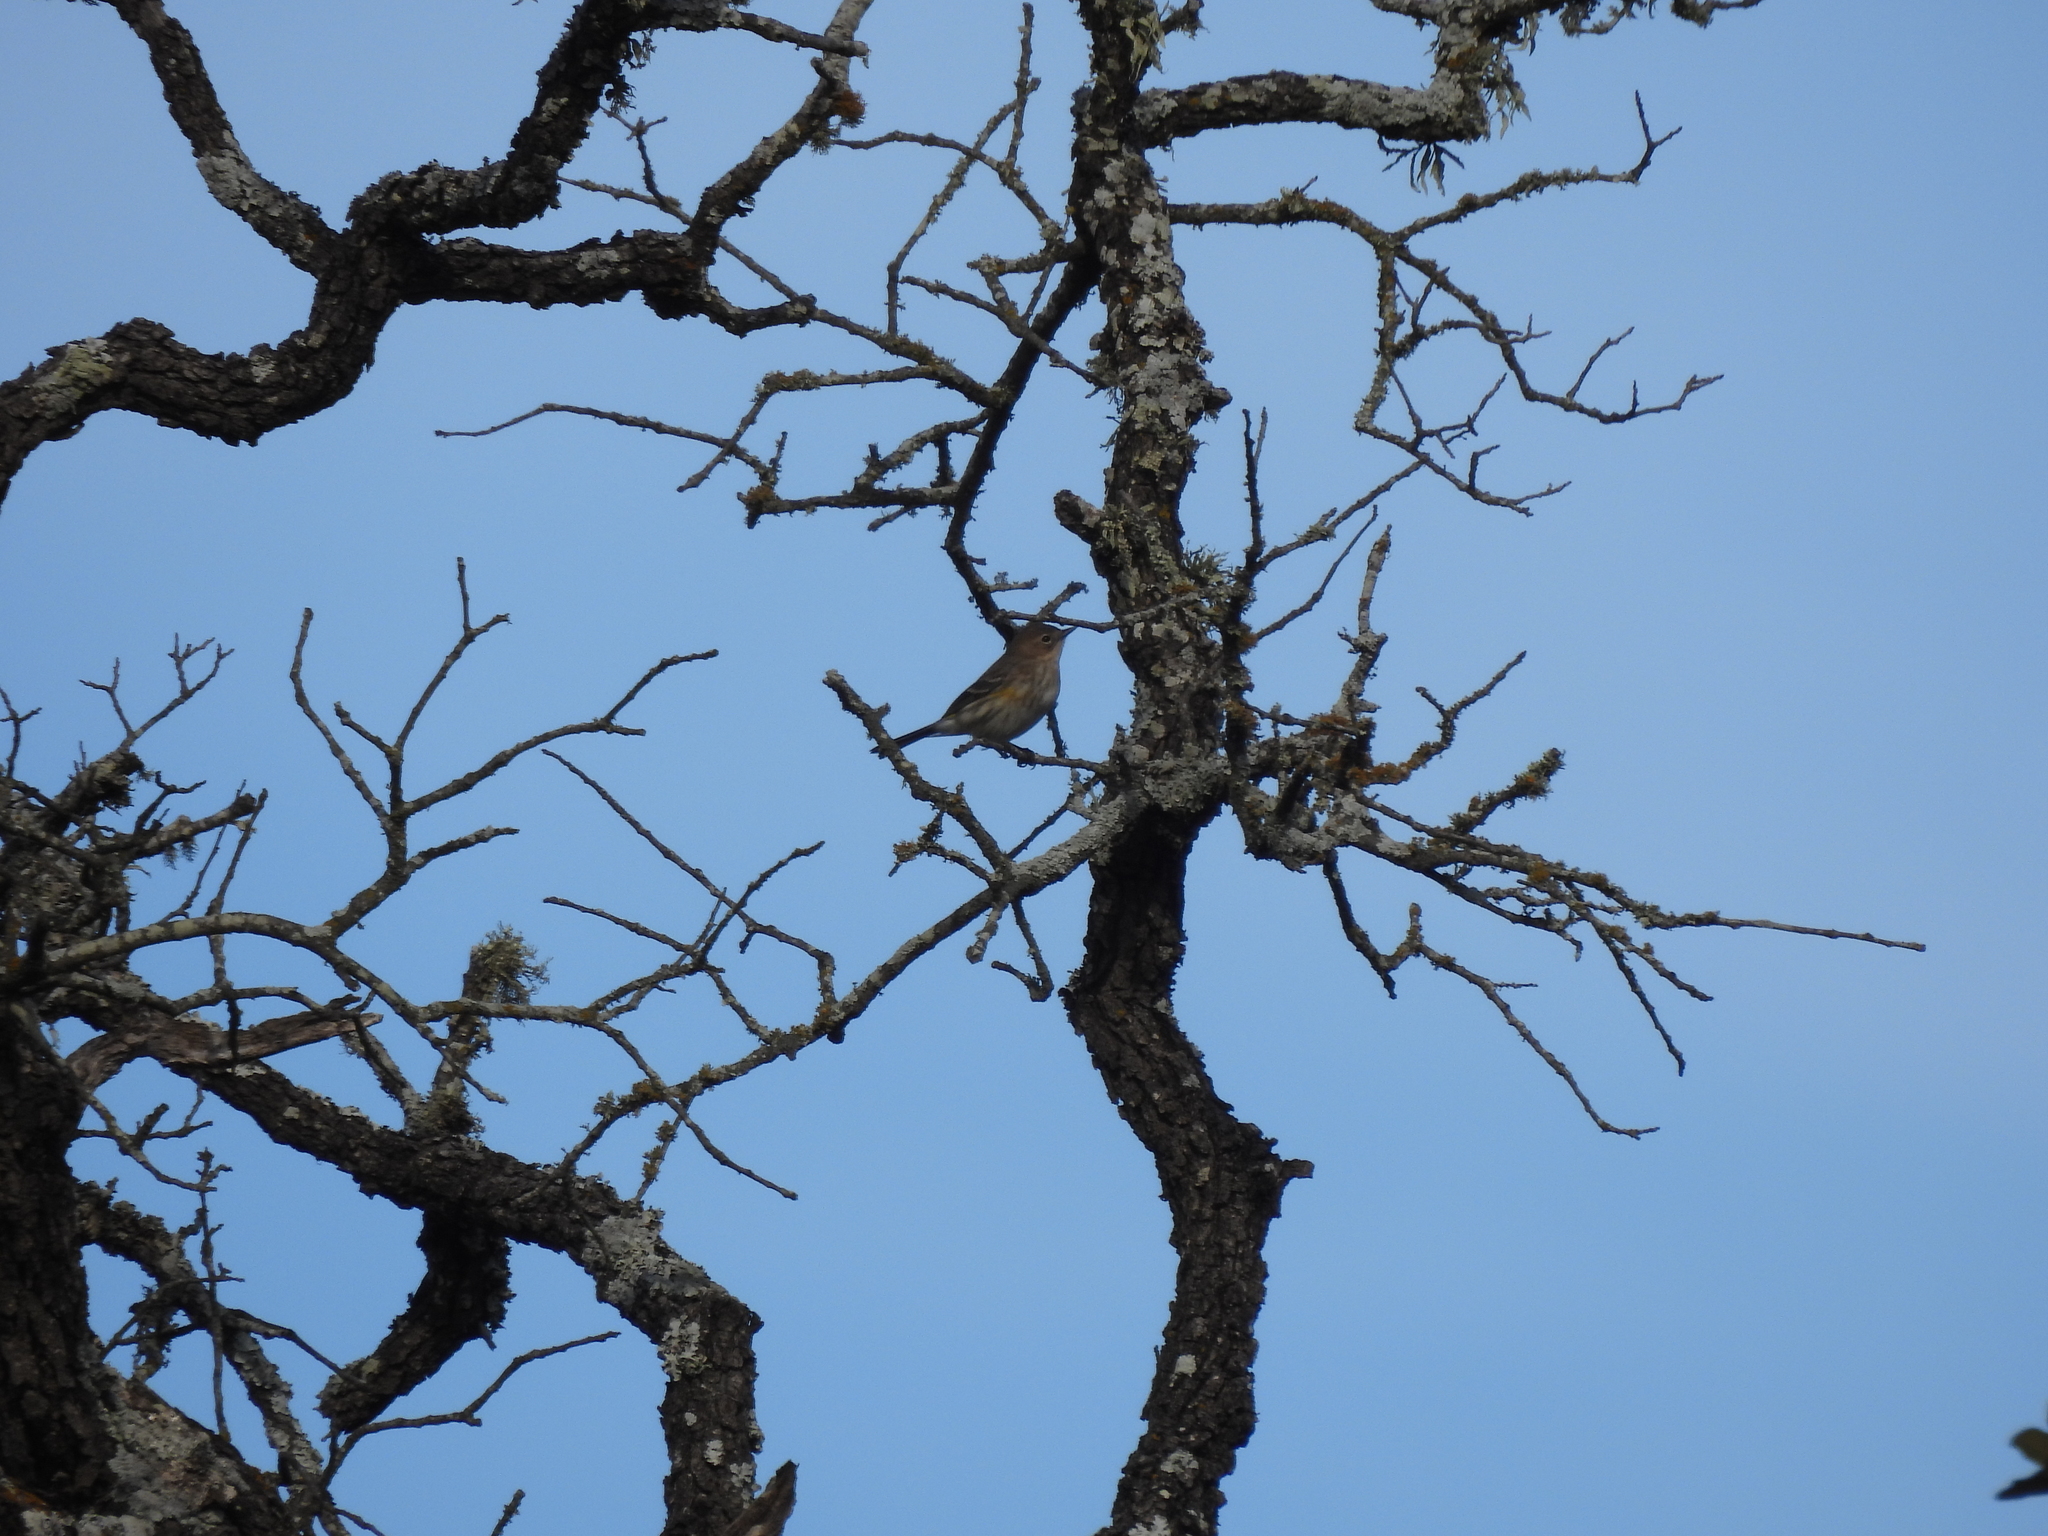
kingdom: Animalia
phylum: Chordata
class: Aves
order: Passeriformes
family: Parulidae
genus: Setophaga
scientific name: Setophaga coronata
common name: Myrtle warbler
